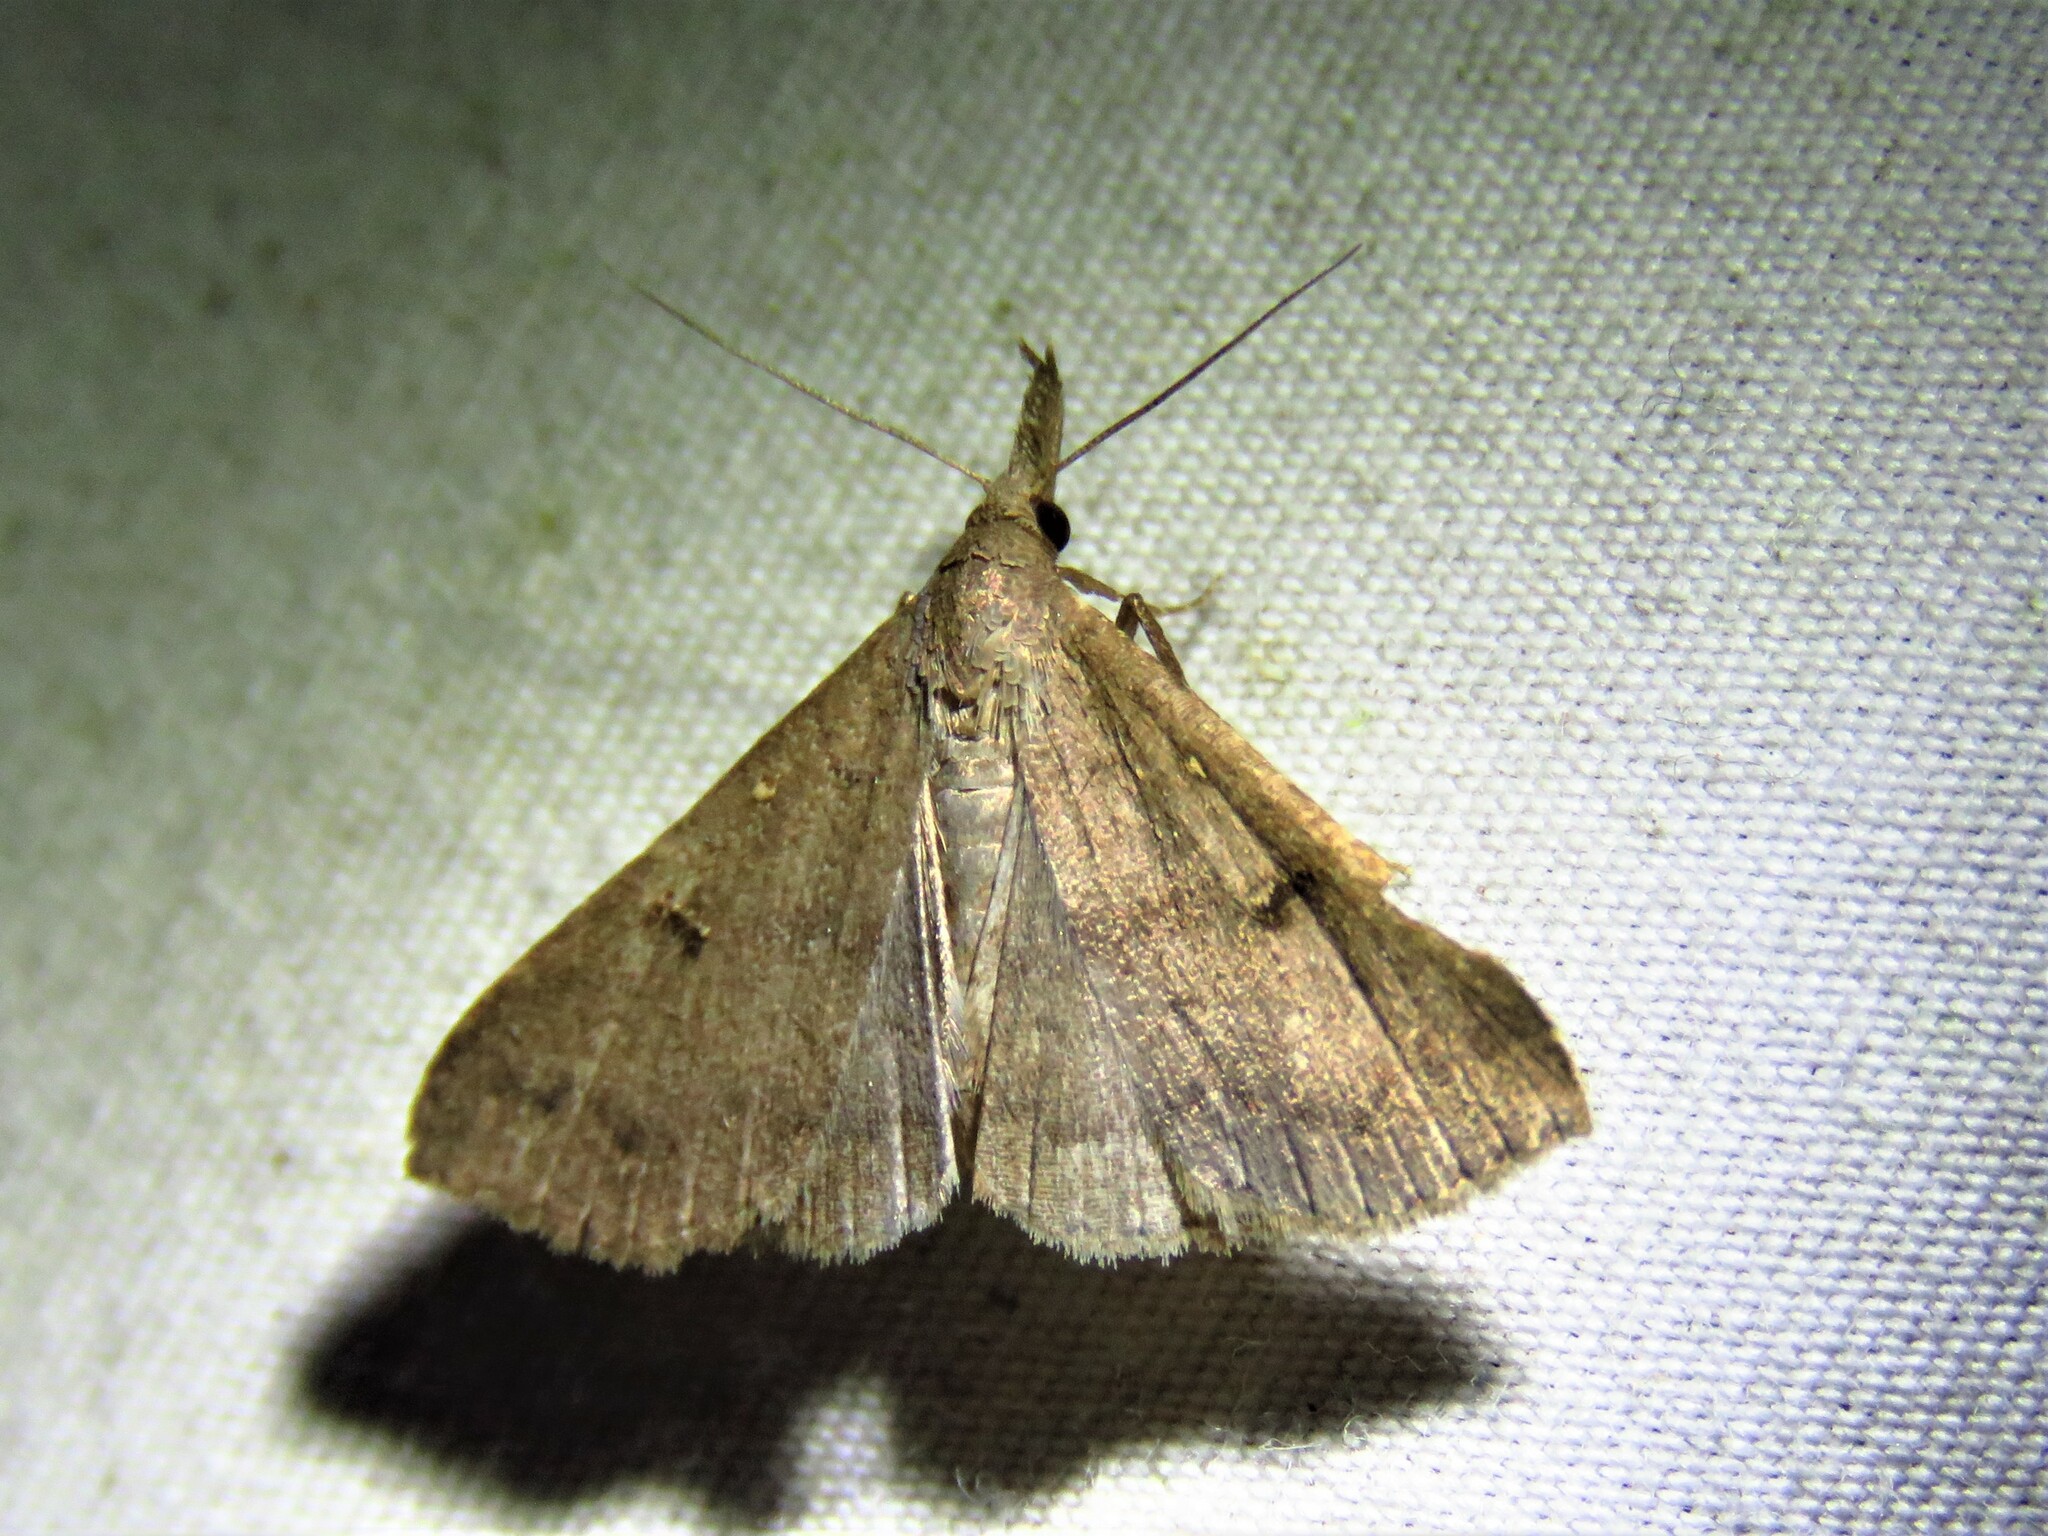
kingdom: Animalia
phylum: Arthropoda
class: Insecta
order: Lepidoptera
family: Erebidae
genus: Renia
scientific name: Renia adspergillus
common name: Speckled renia moth
